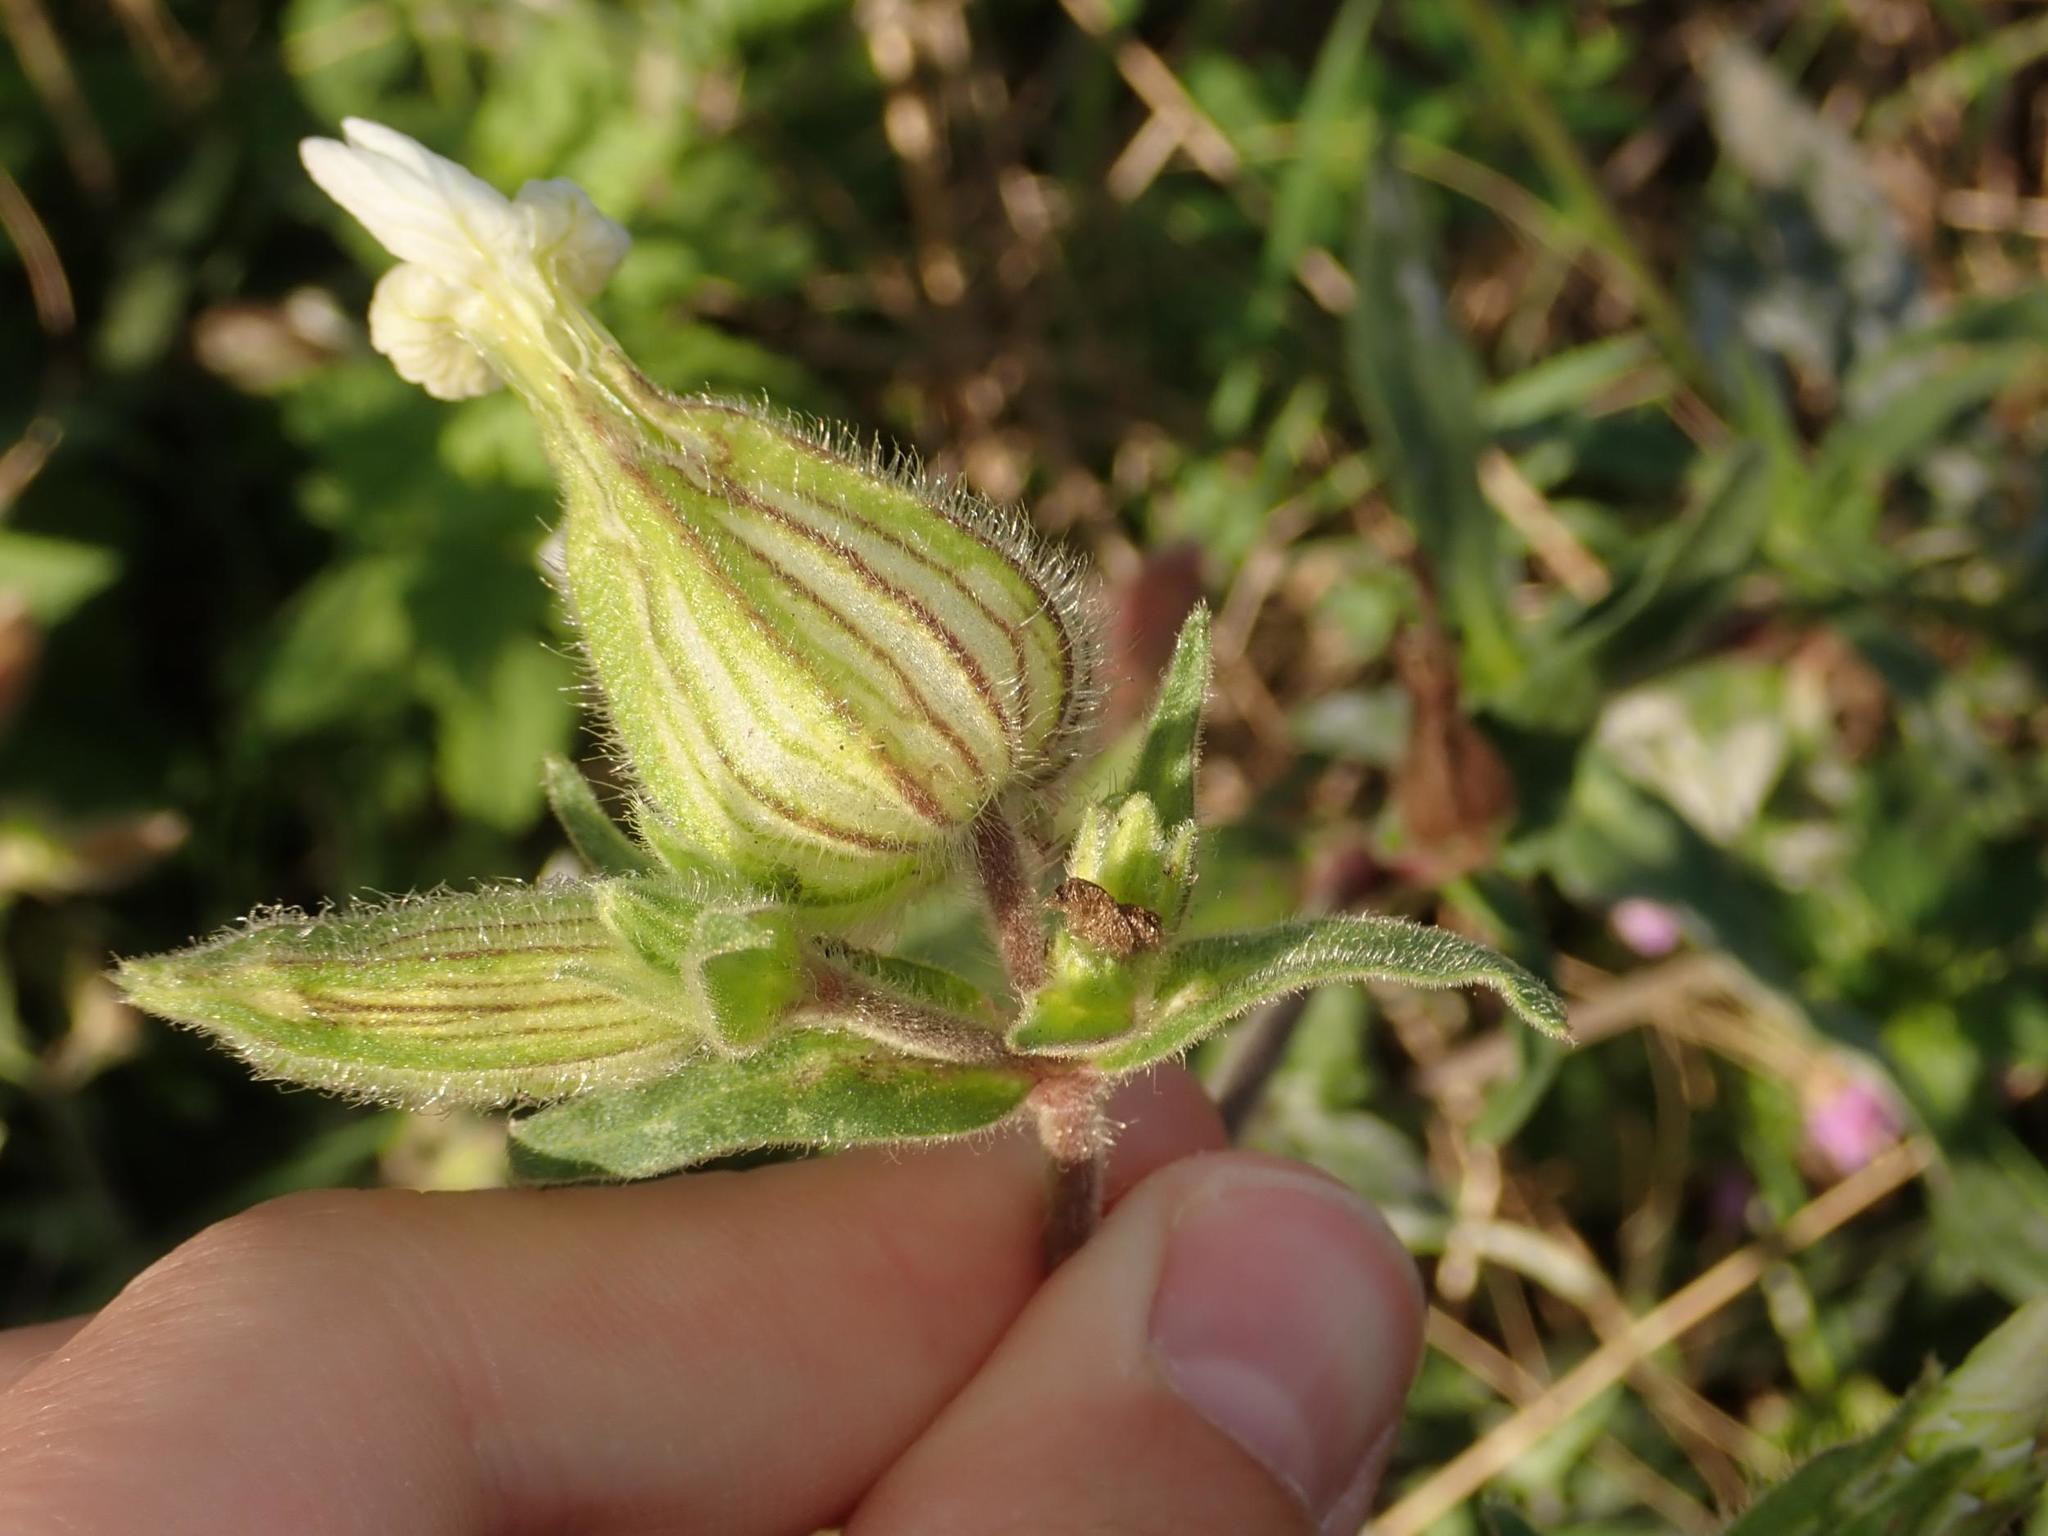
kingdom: Plantae
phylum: Tracheophyta
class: Magnoliopsida
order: Caryophyllales
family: Caryophyllaceae
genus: Silene
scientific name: Silene latifolia
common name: White campion
